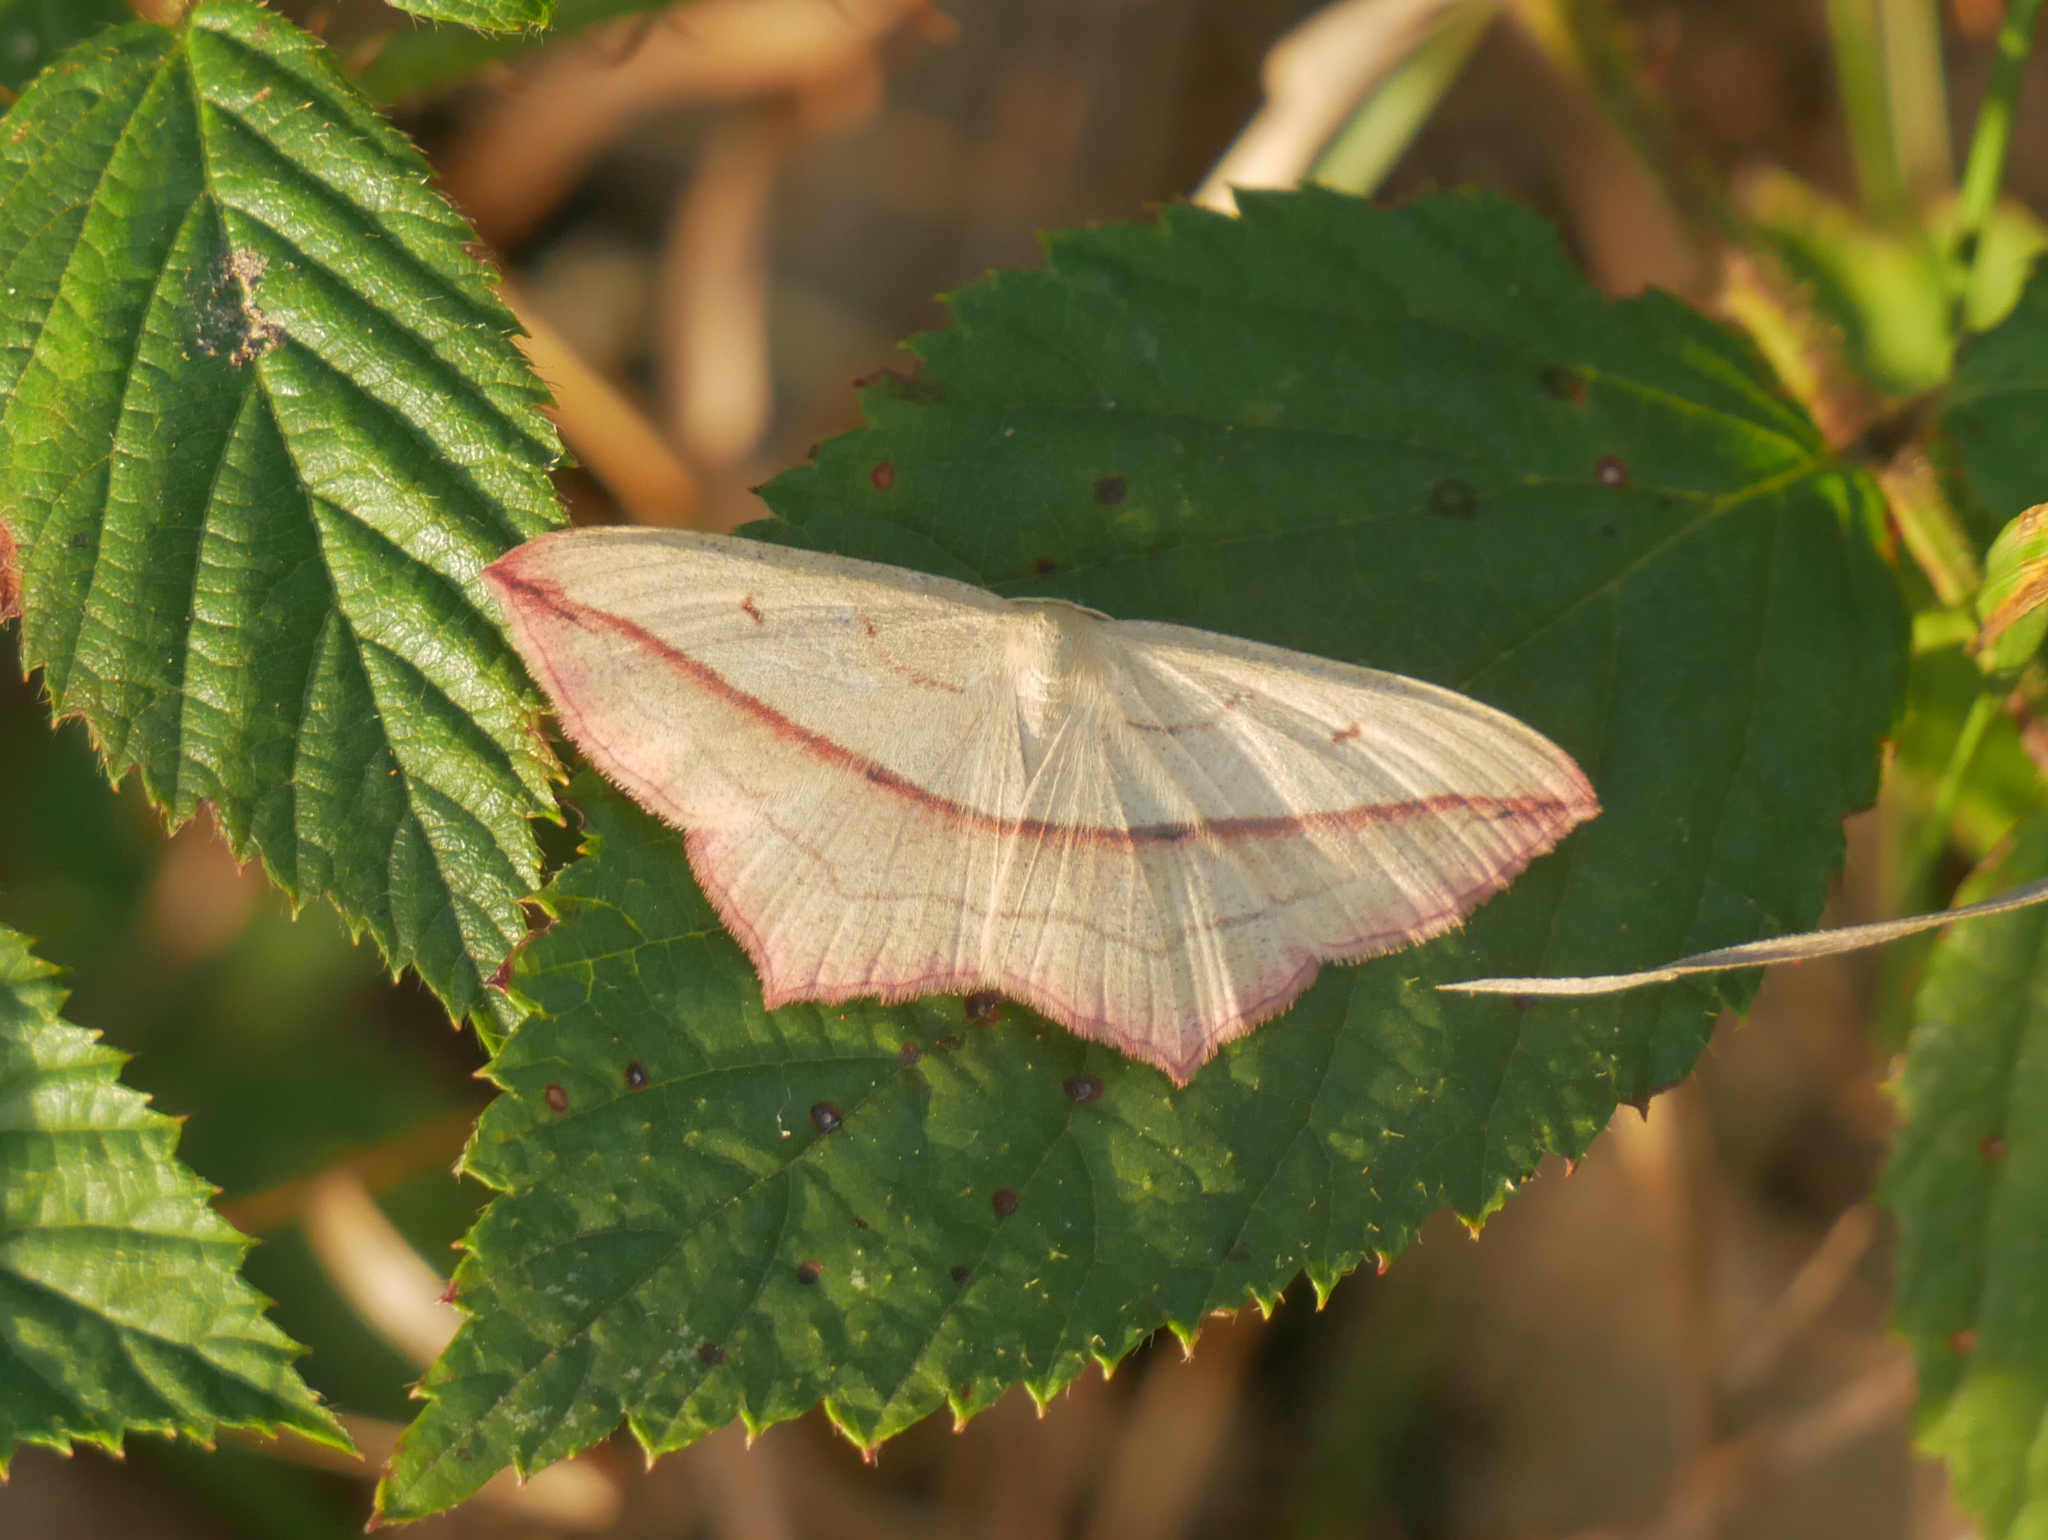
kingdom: Animalia
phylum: Arthropoda
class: Insecta
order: Lepidoptera
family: Geometridae
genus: Timandra
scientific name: Timandra comae
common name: Blood-vein
